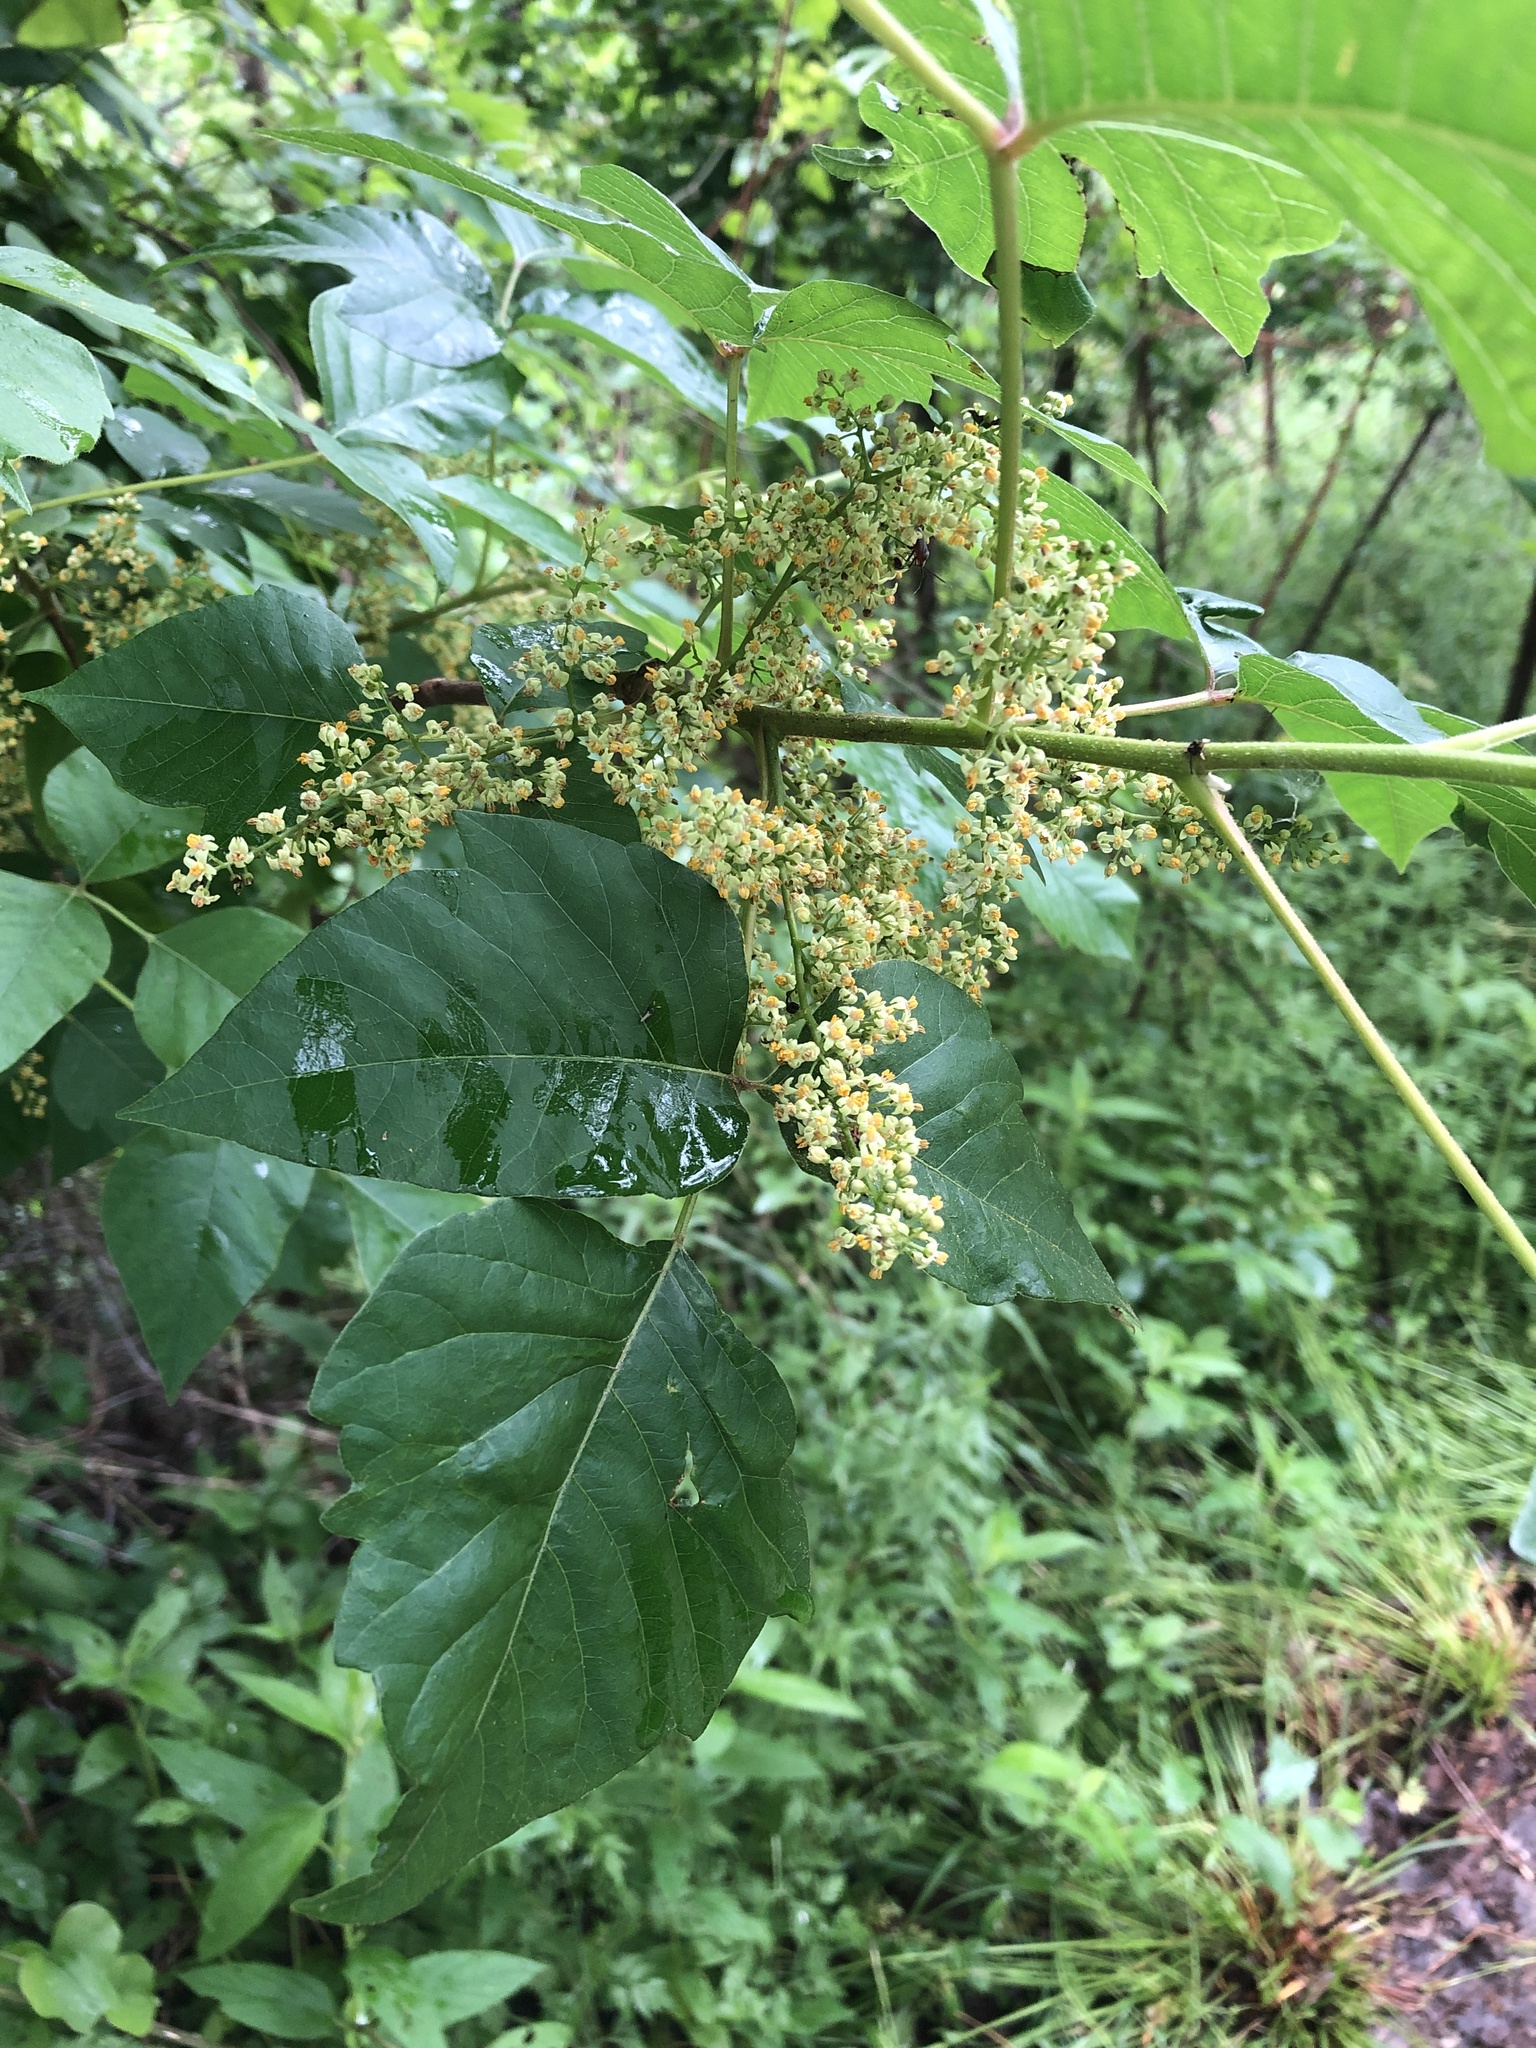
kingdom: Plantae
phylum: Tracheophyta
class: Magnoliopsida
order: Sapindales
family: Anacardiaceae
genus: Toxicodendron
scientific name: Toxicodendron radicans
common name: Poison ivy
